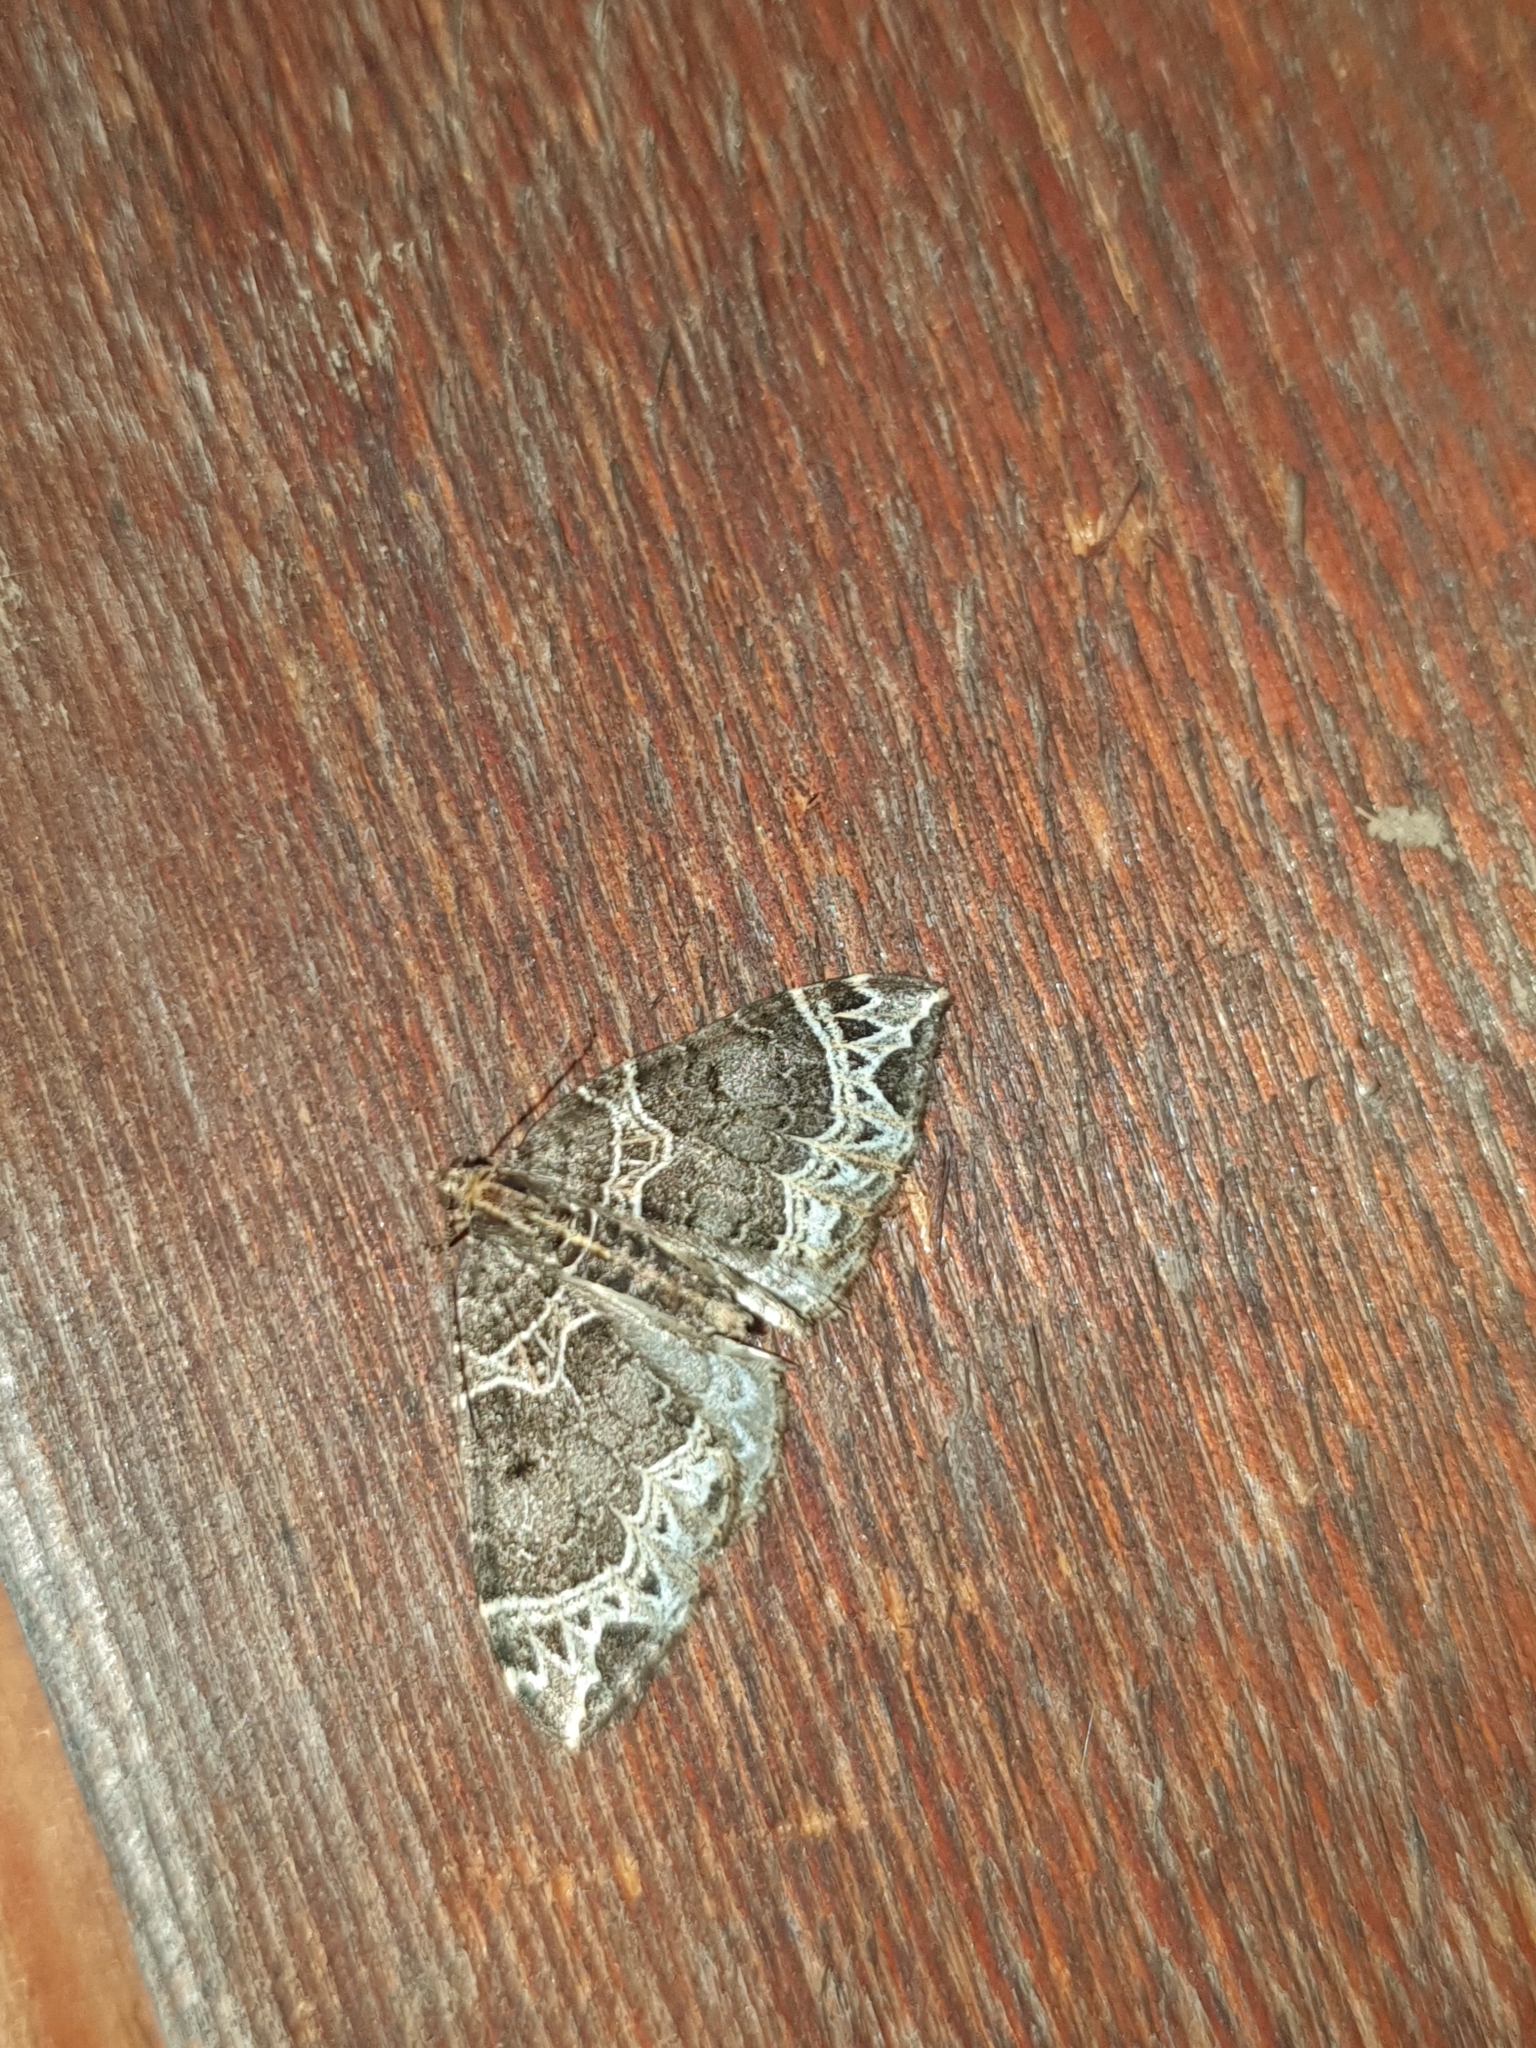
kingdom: Animalia
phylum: Arthropoda
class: Insecta
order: Lepidoptera
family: Geometridae
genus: Ecliptopera
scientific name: Ecliptopera silaceata
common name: Small phoenix
